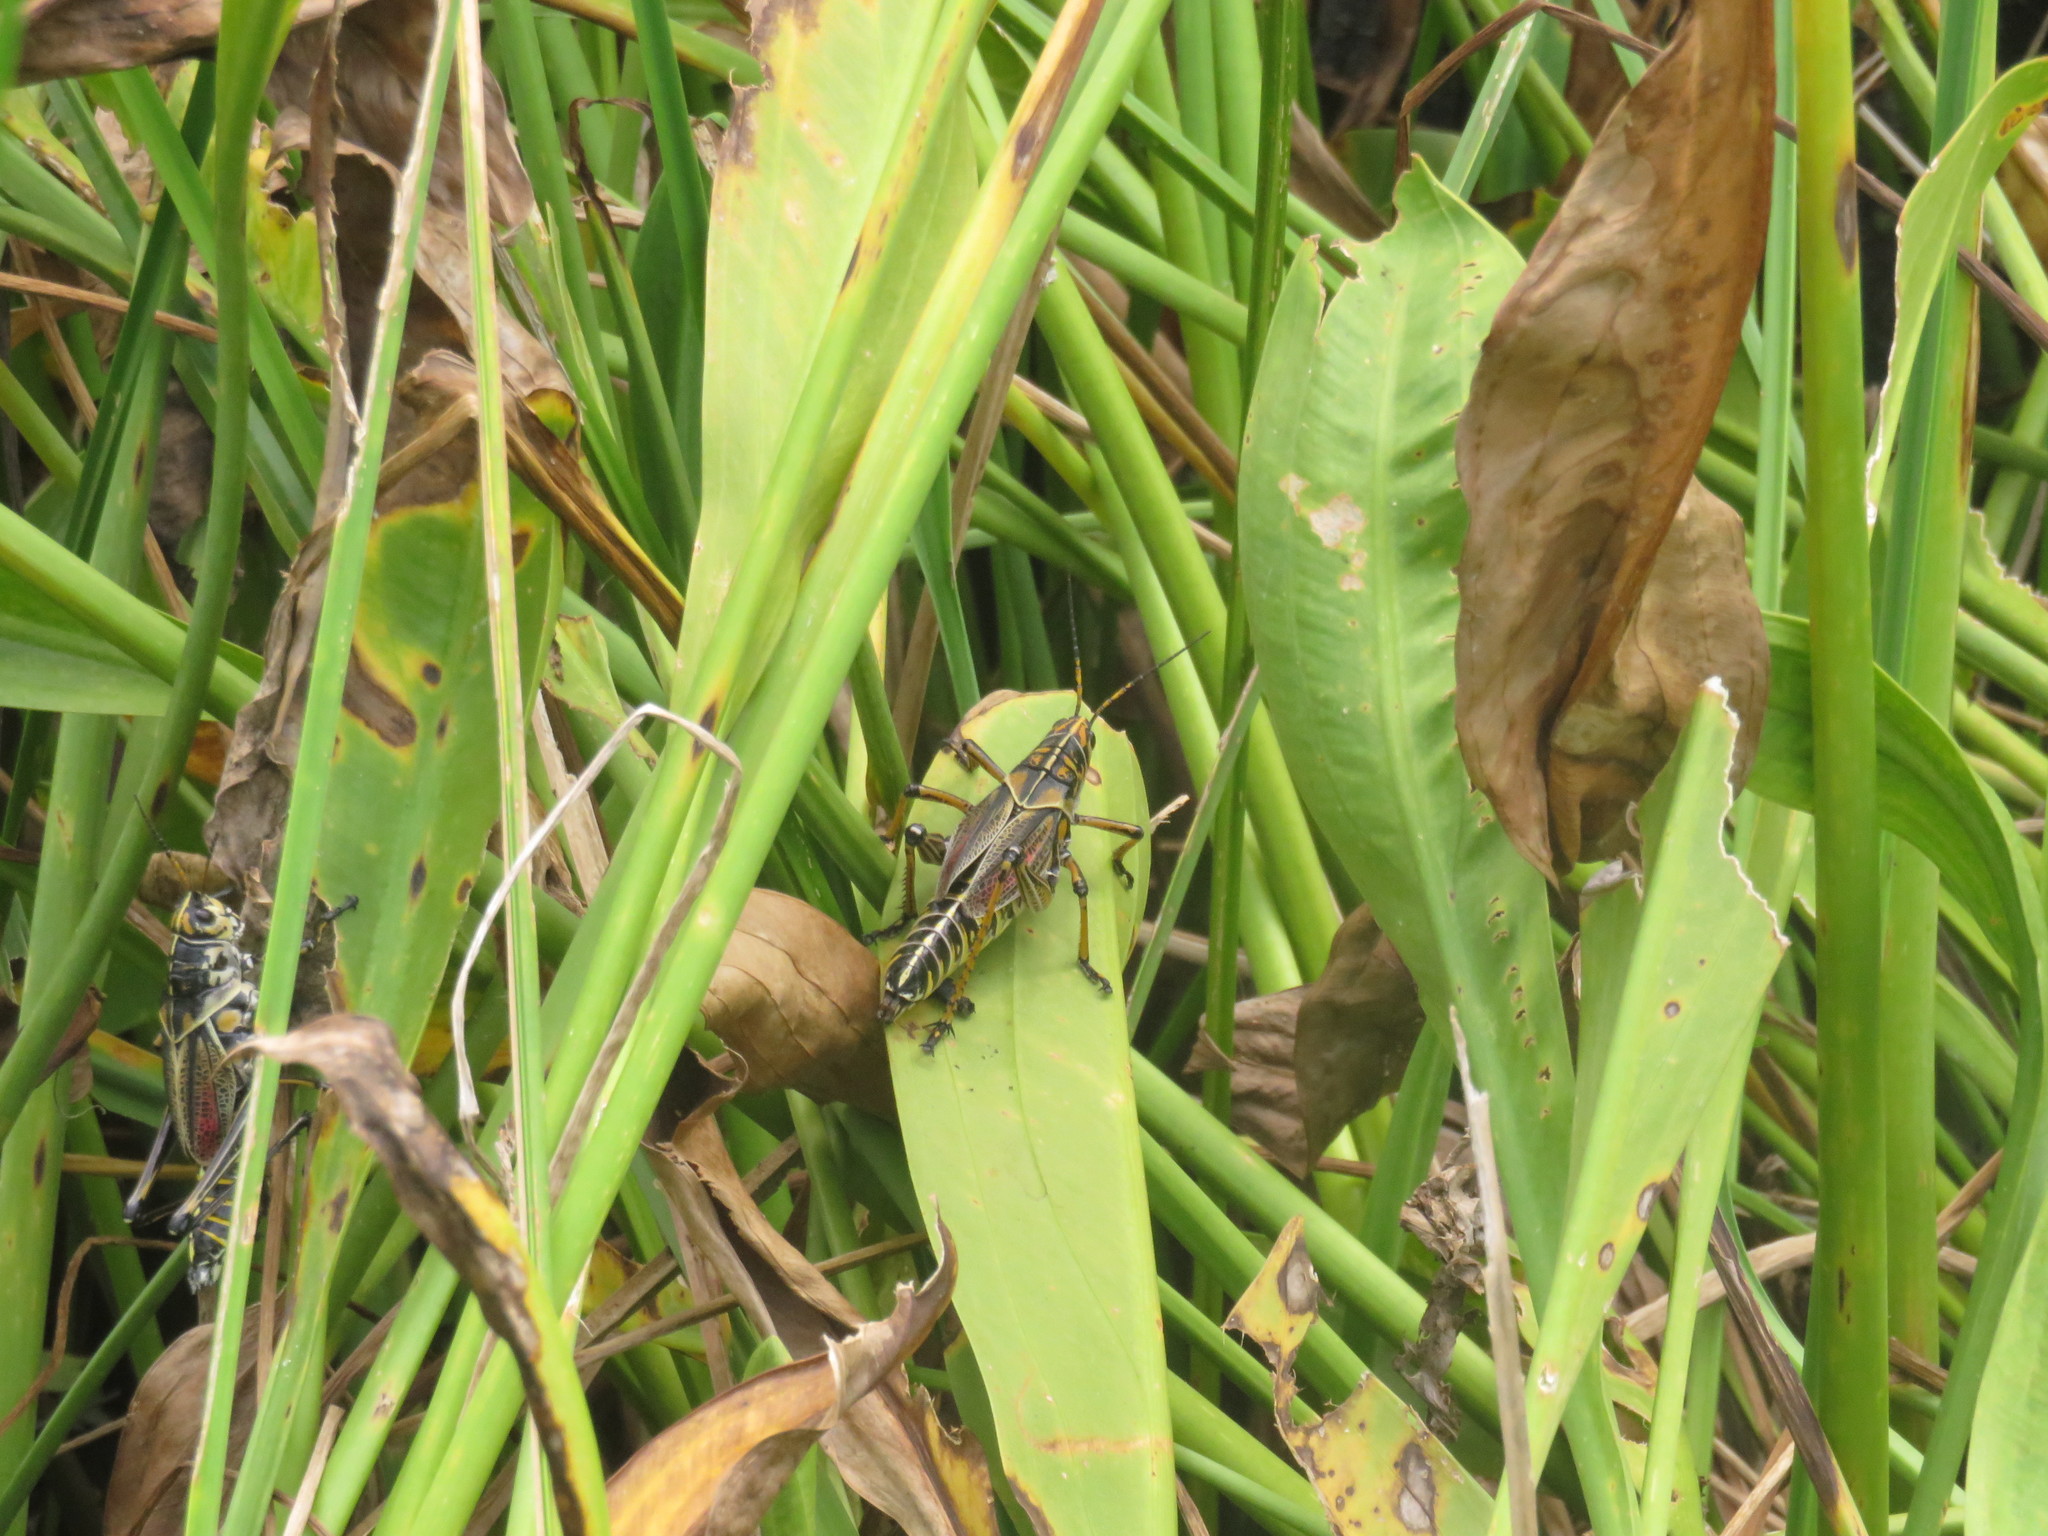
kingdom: Animalia
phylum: Arthropoda
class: Insecta
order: Orthoptera
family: Romaleidae
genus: Romalea
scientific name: Romalea microptera
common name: Eastern lubber grasshopper
